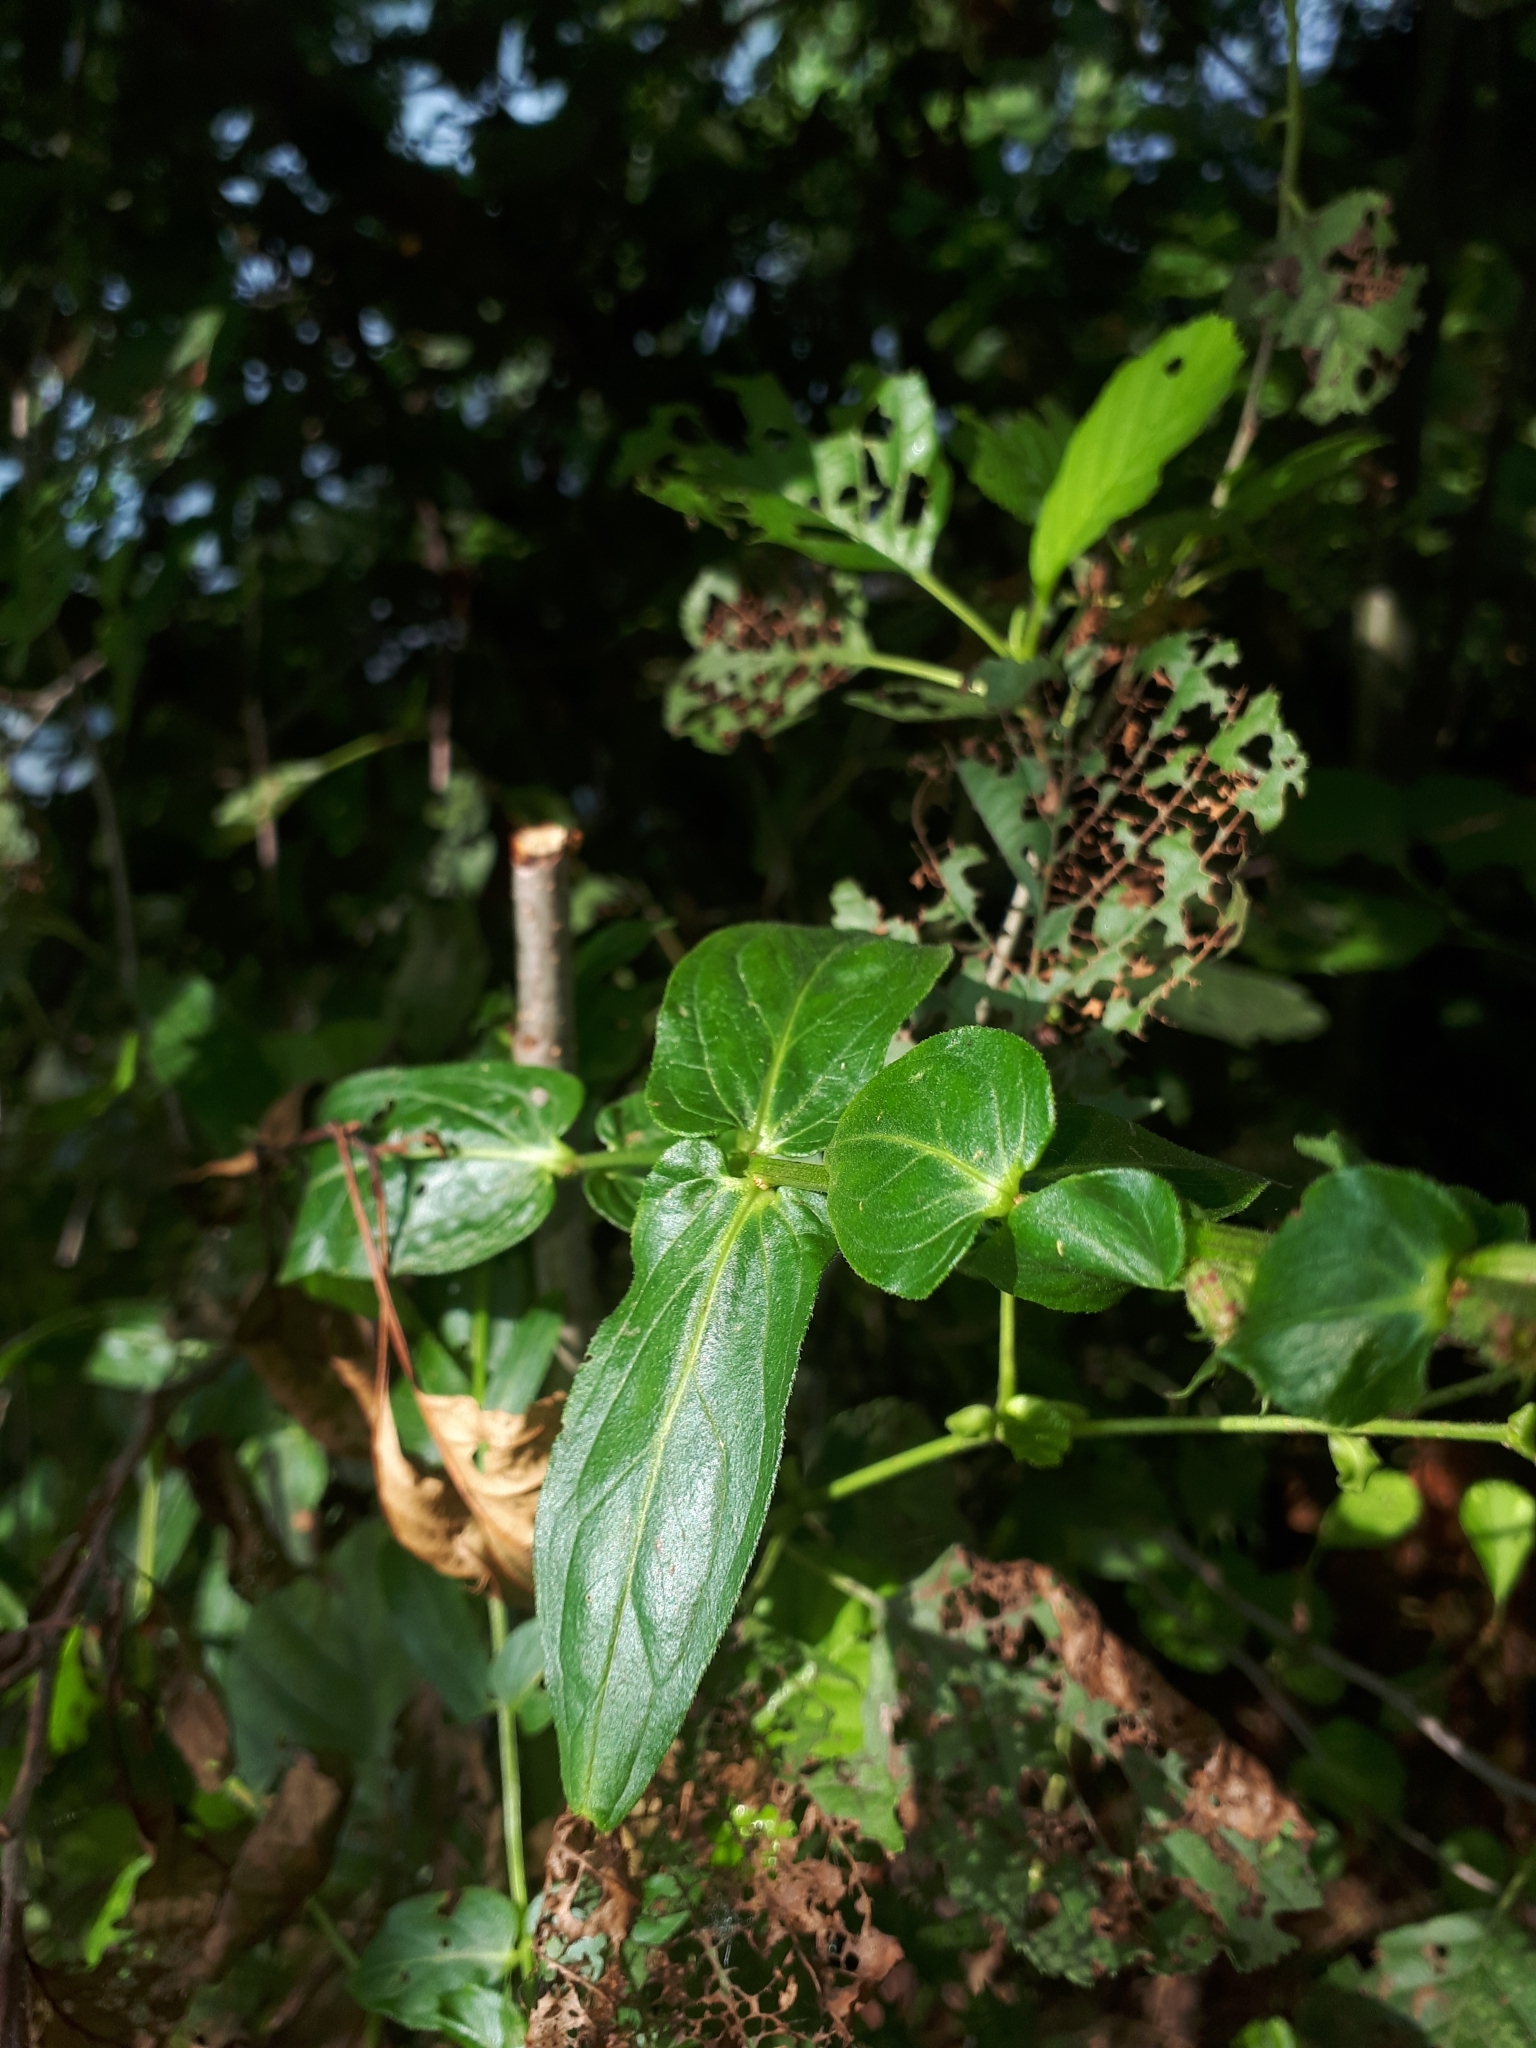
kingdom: Plantae
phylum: Tracheophyta
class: Magnoliopsida
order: Myrtales
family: Lythraceae
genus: Lythrum
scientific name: Lythrum salicaria
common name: Purple loosestrife
